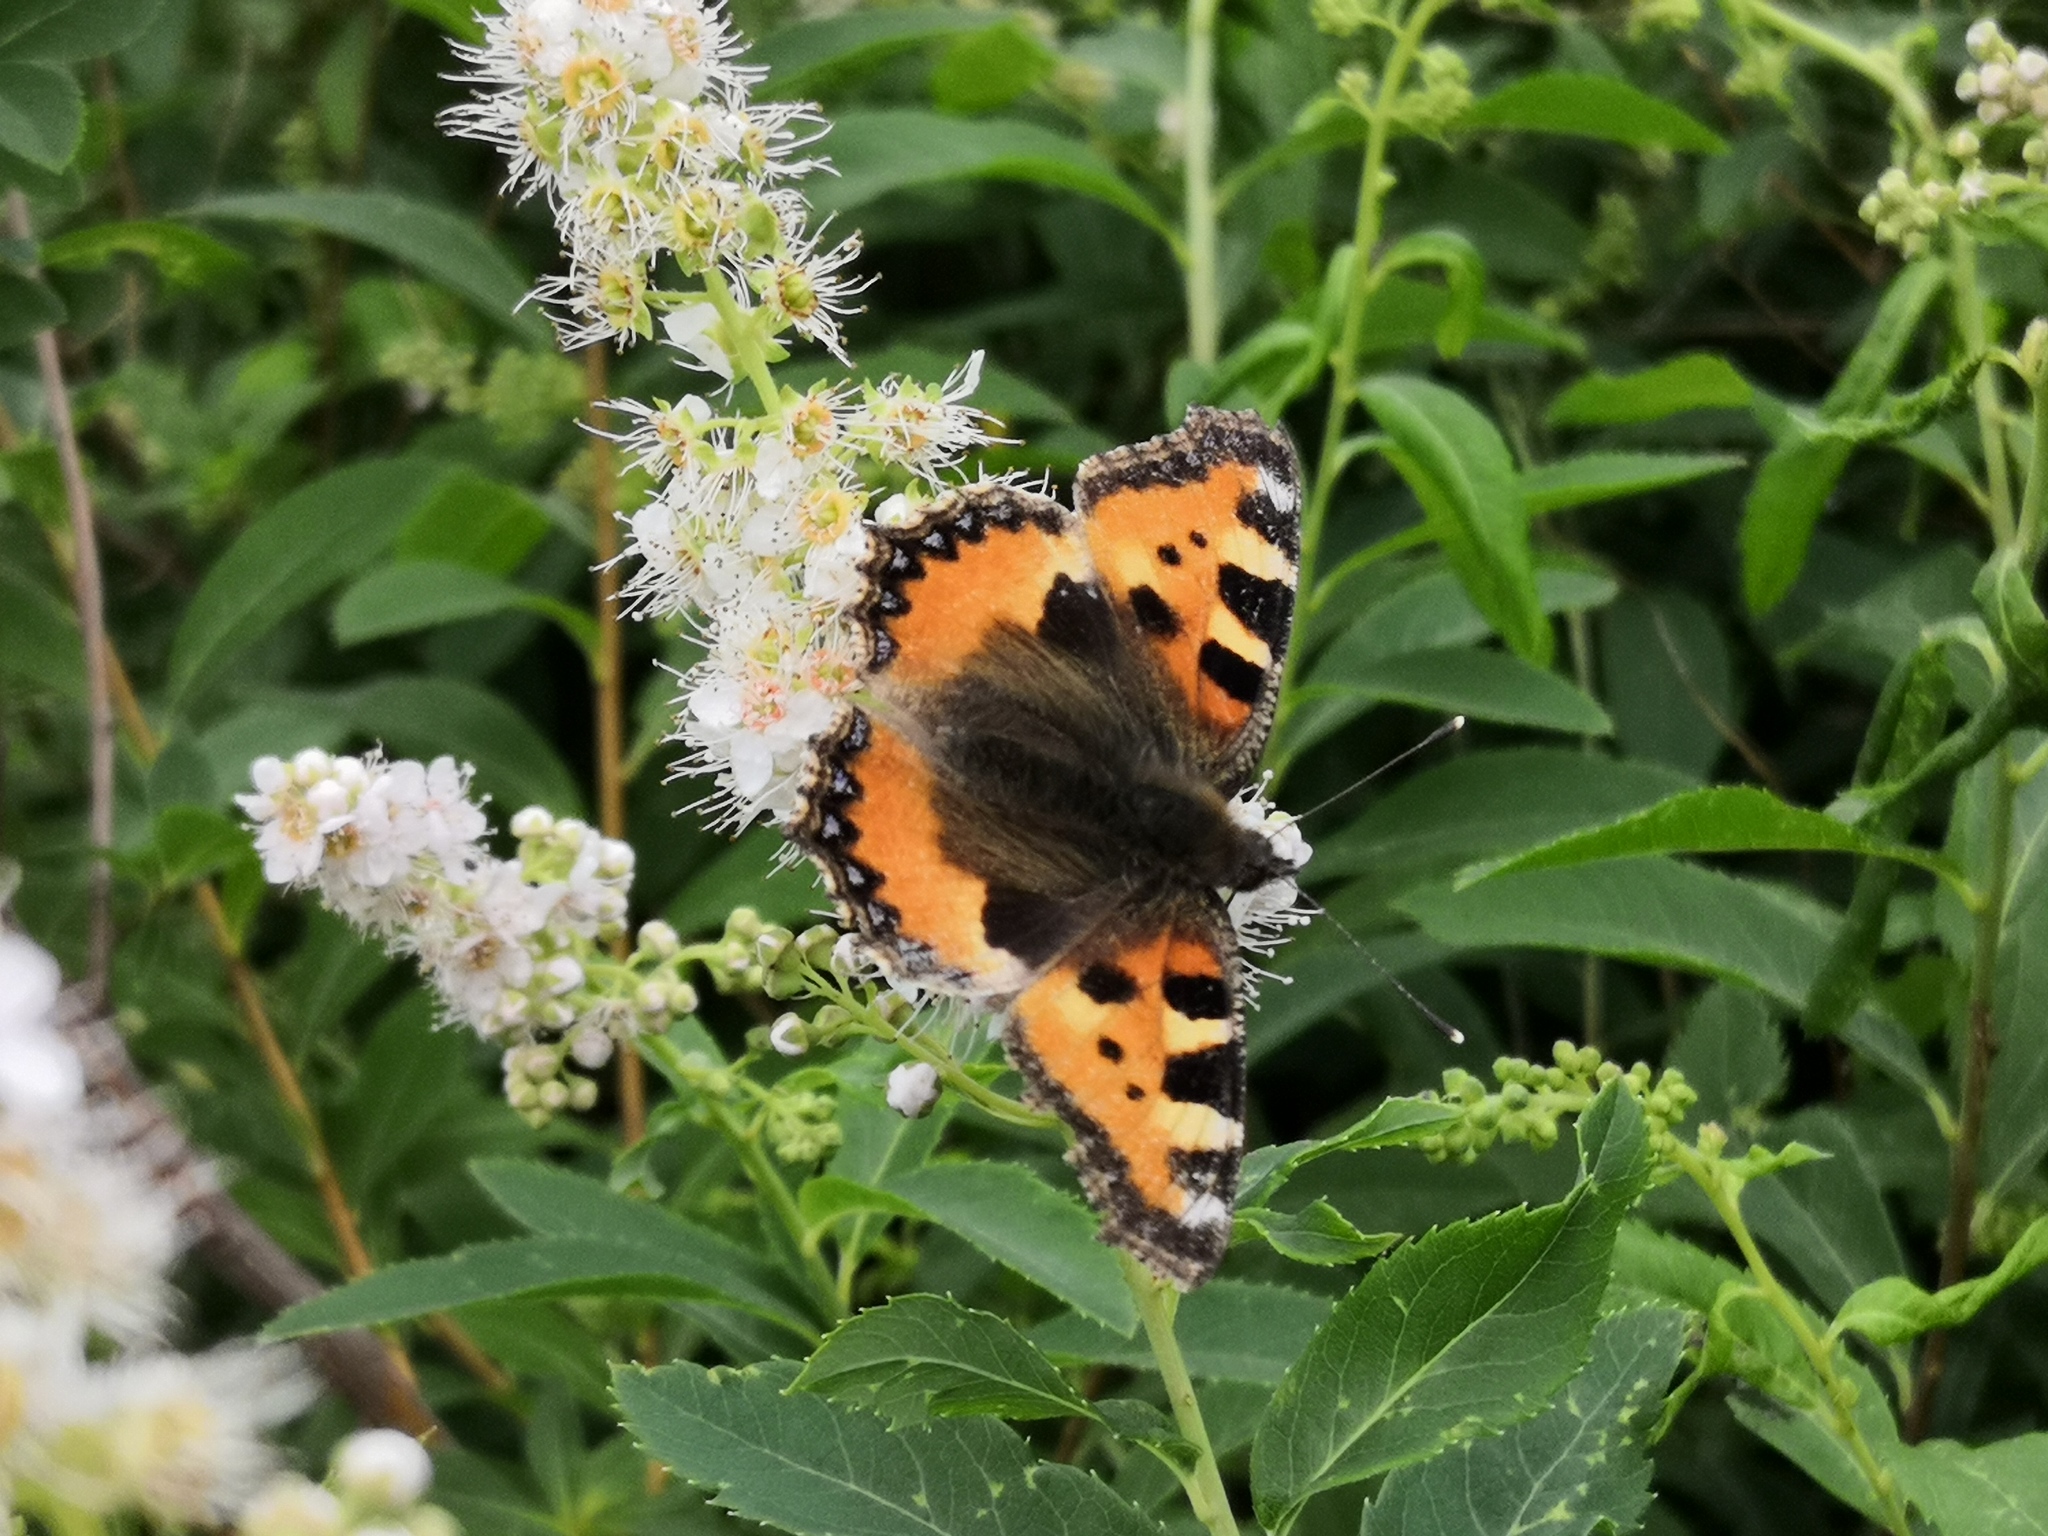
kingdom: Animalia
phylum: Arthropoda
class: Insecta
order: Lepidoptera
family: Nymphalidae
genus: Aglais
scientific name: Aglais urticae
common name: Small tortoiseshell
